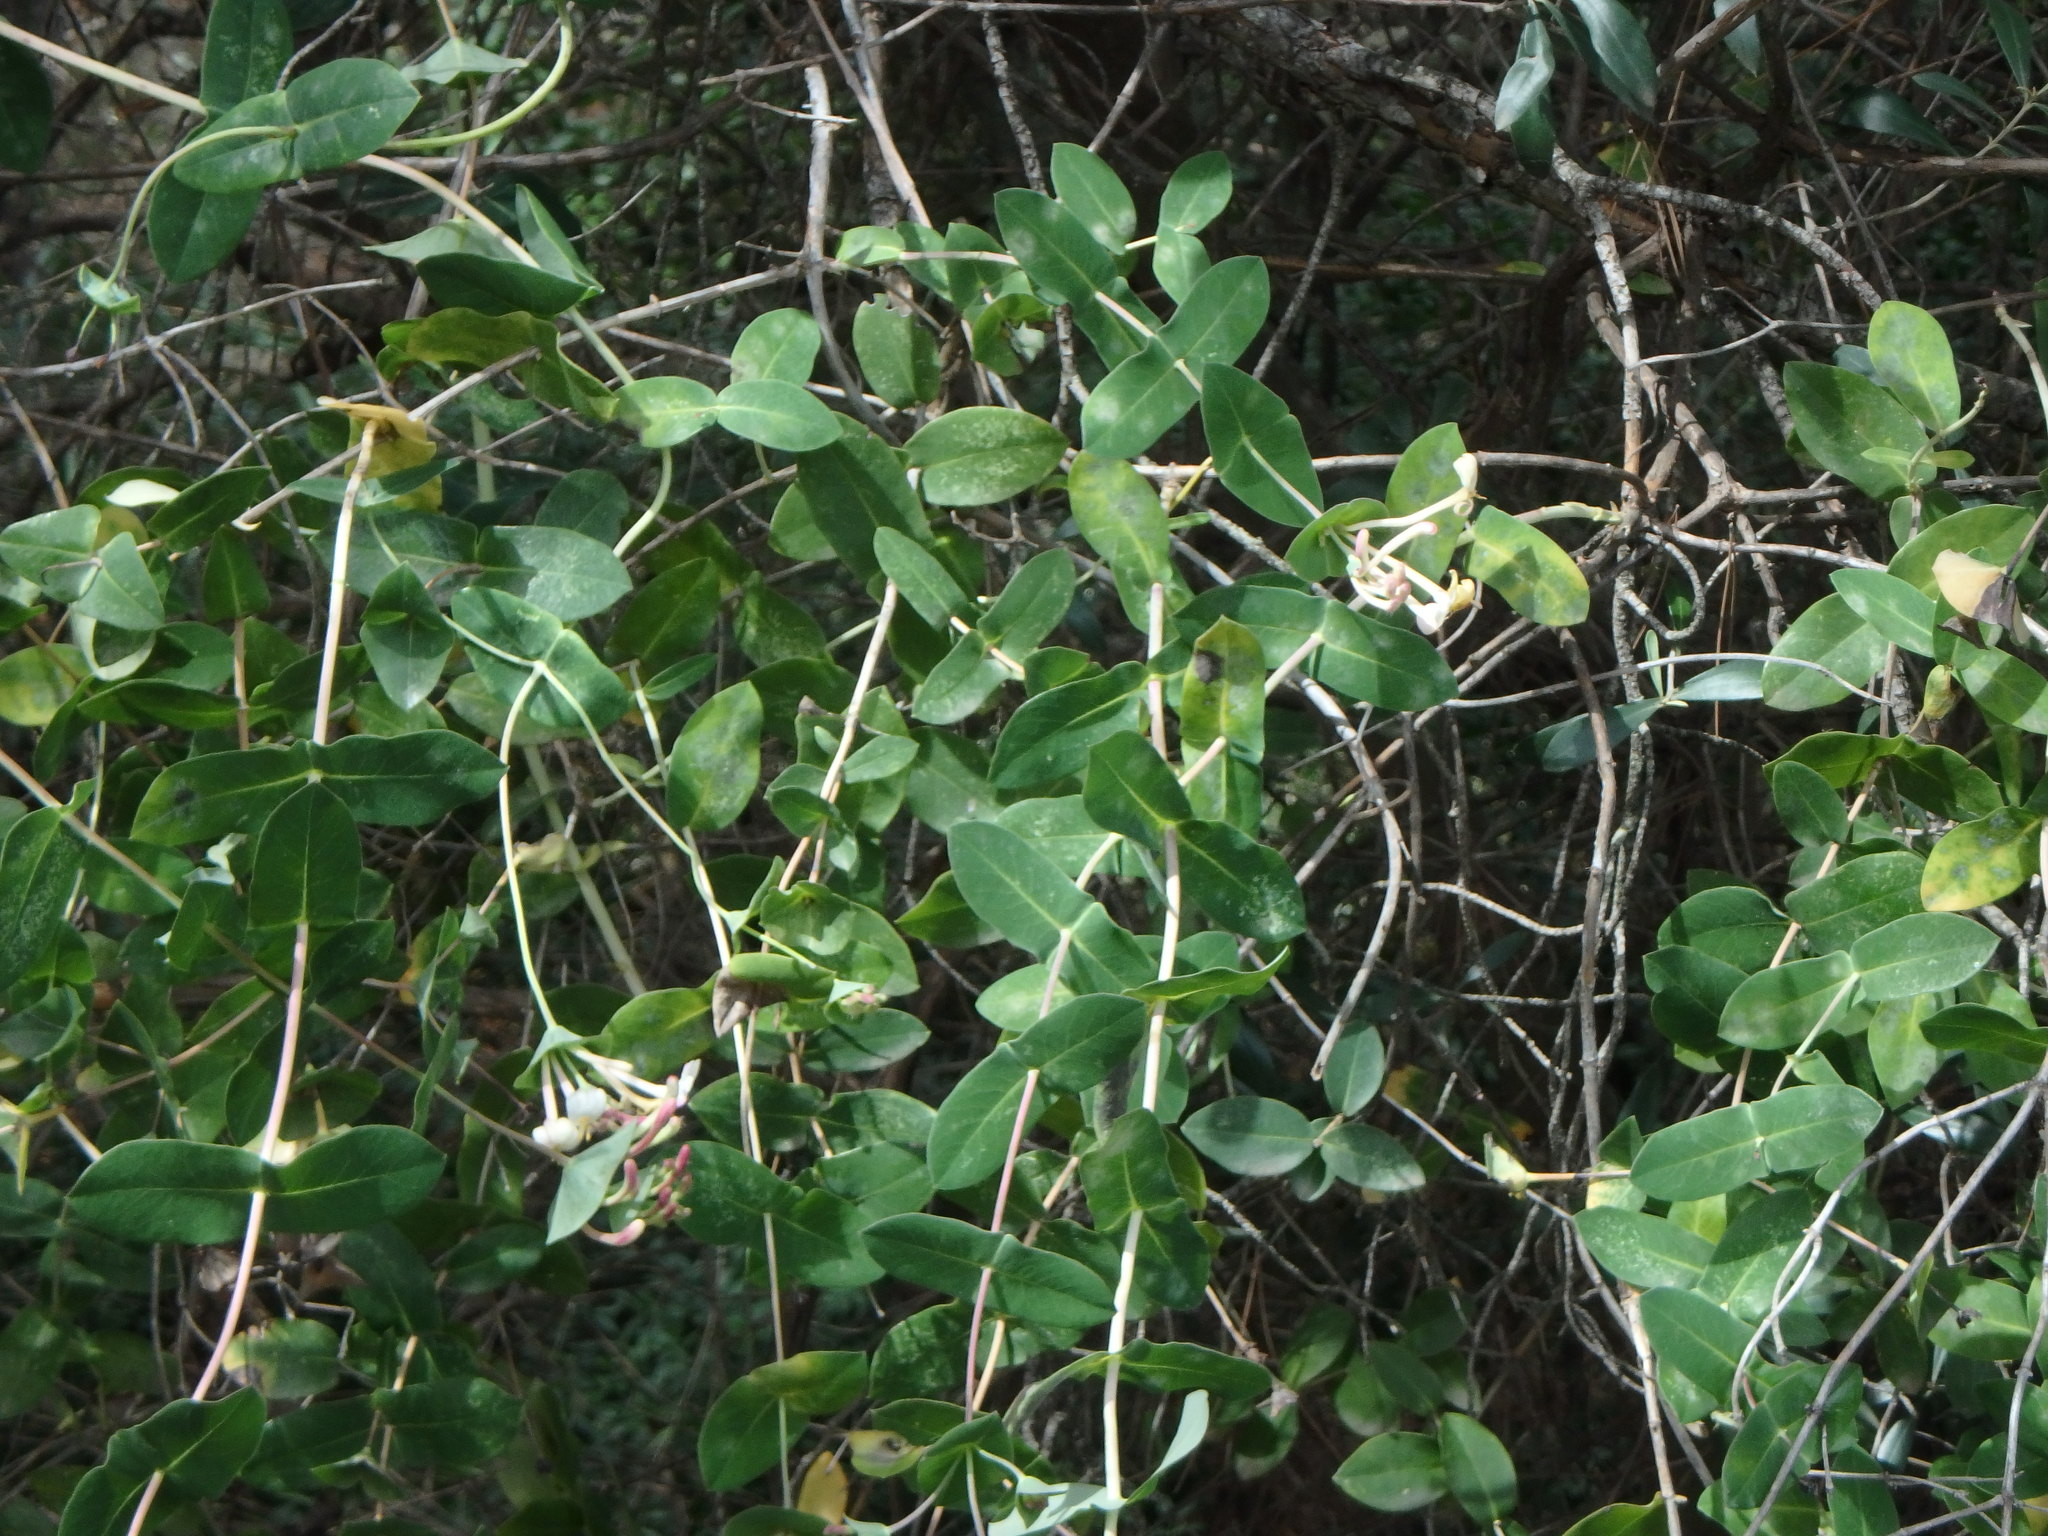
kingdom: Plantae
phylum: Tracheophyta
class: Magnoliopsida
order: Dipsacales
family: Caprifoliaceae
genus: Lonicera
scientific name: Lonicera implexa
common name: Minorca honeysuckle
